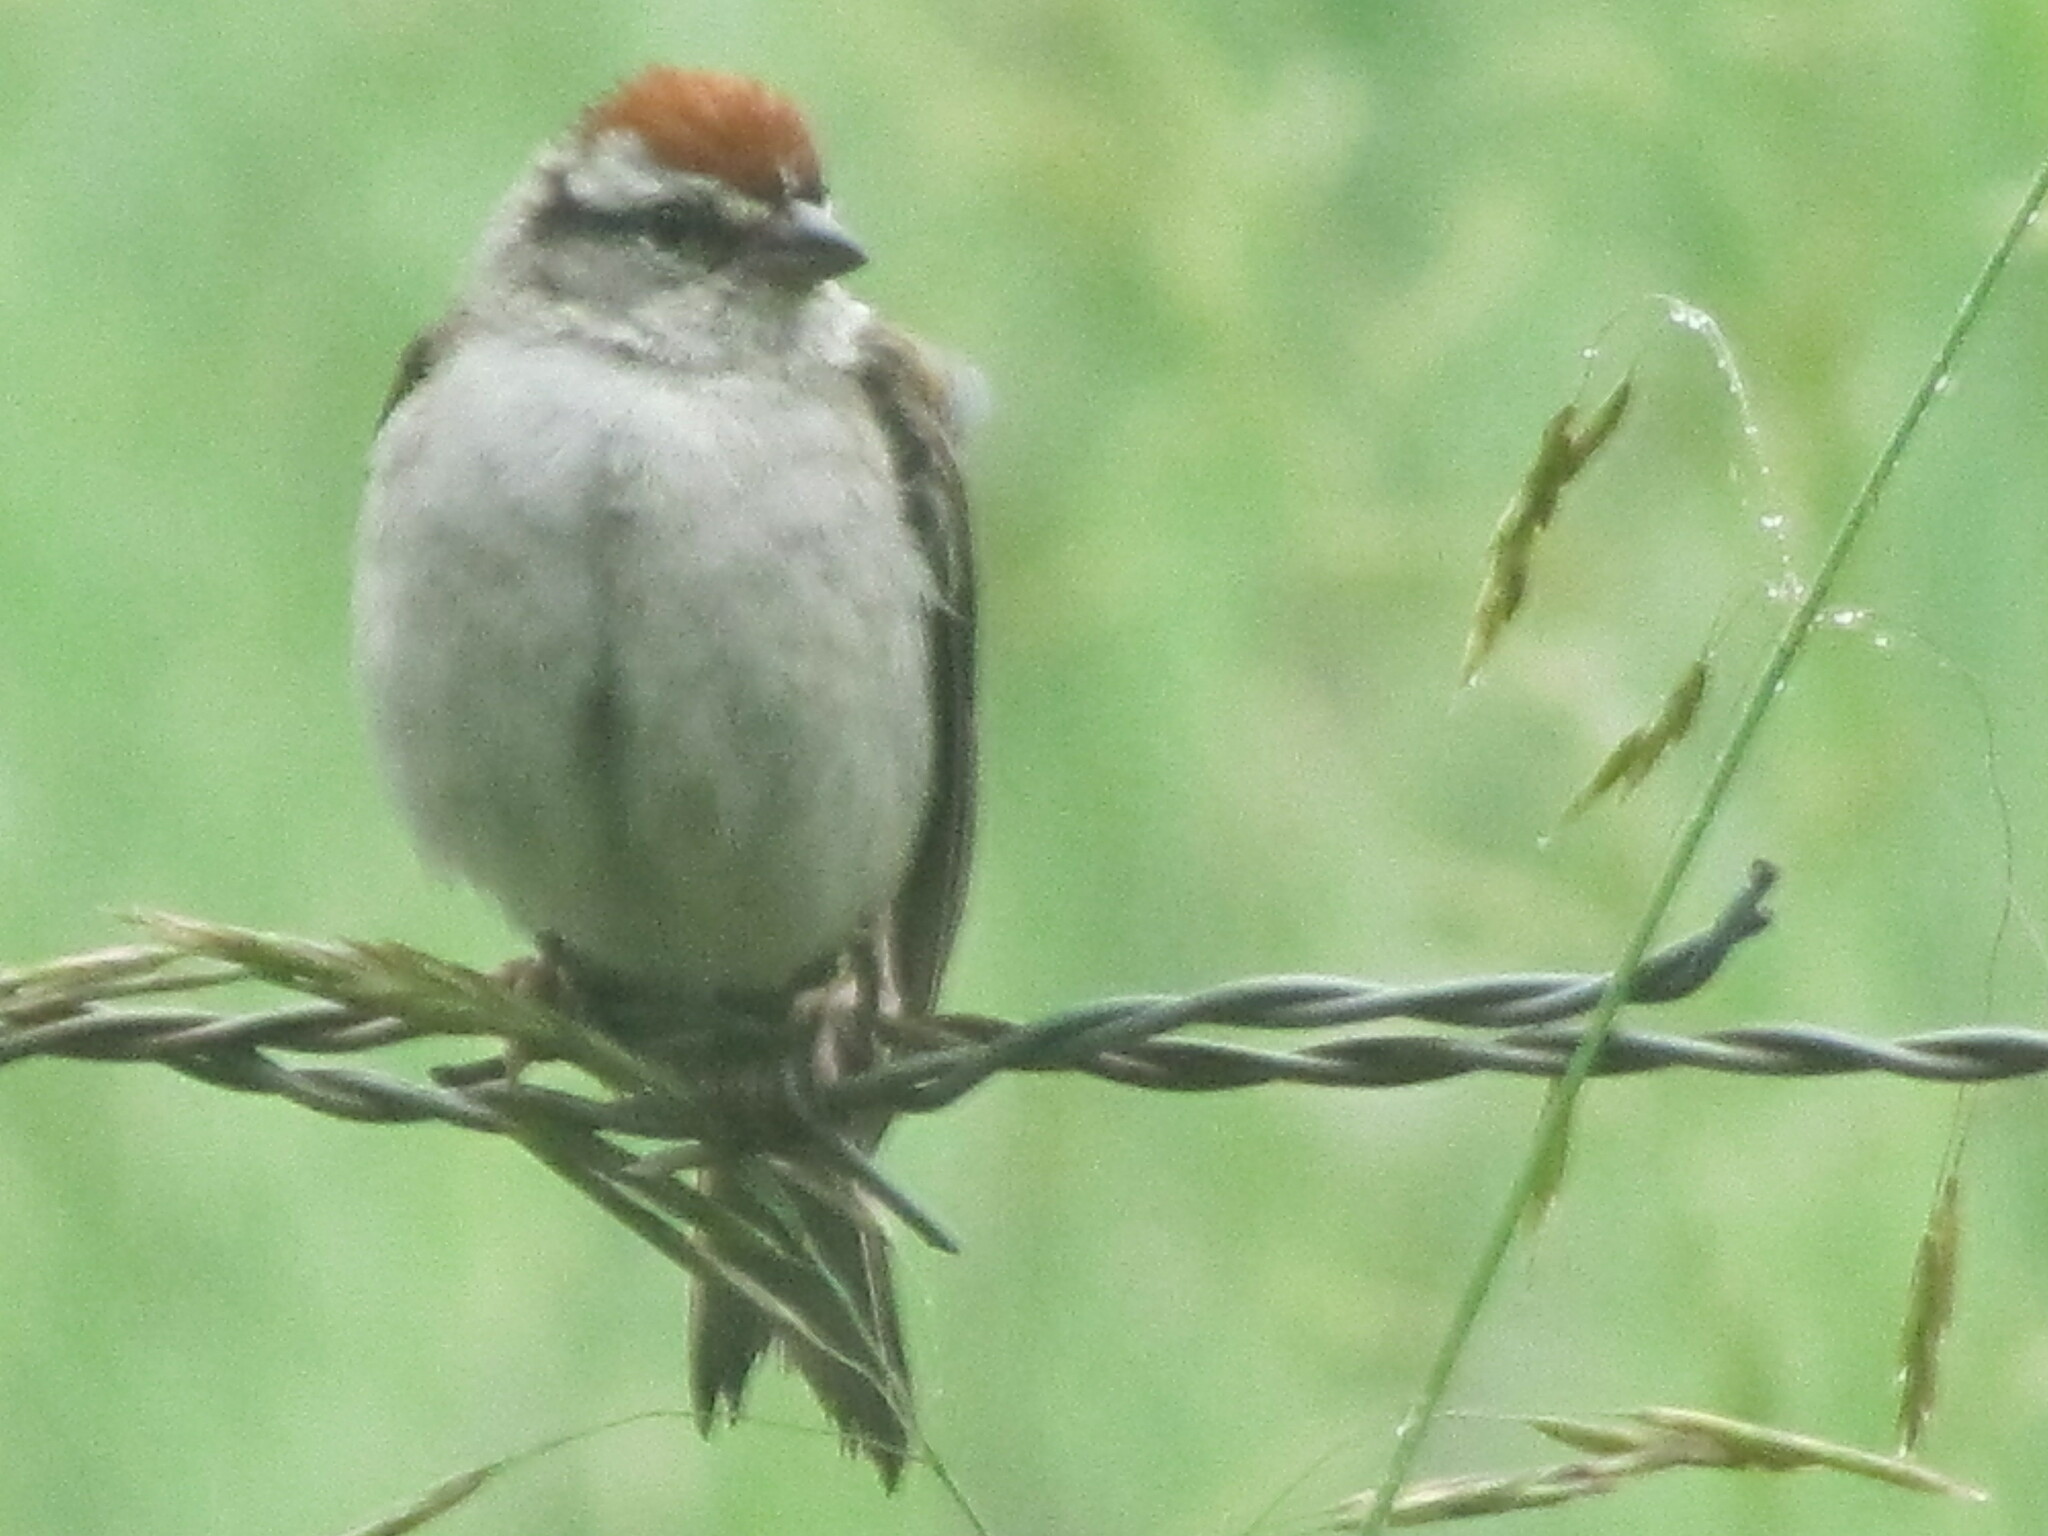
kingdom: Animalia
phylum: Chordata
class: Aves
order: Passeriformes
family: Passerellidae
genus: Spizella
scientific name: Spizella passerina
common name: Chipping sparrow
